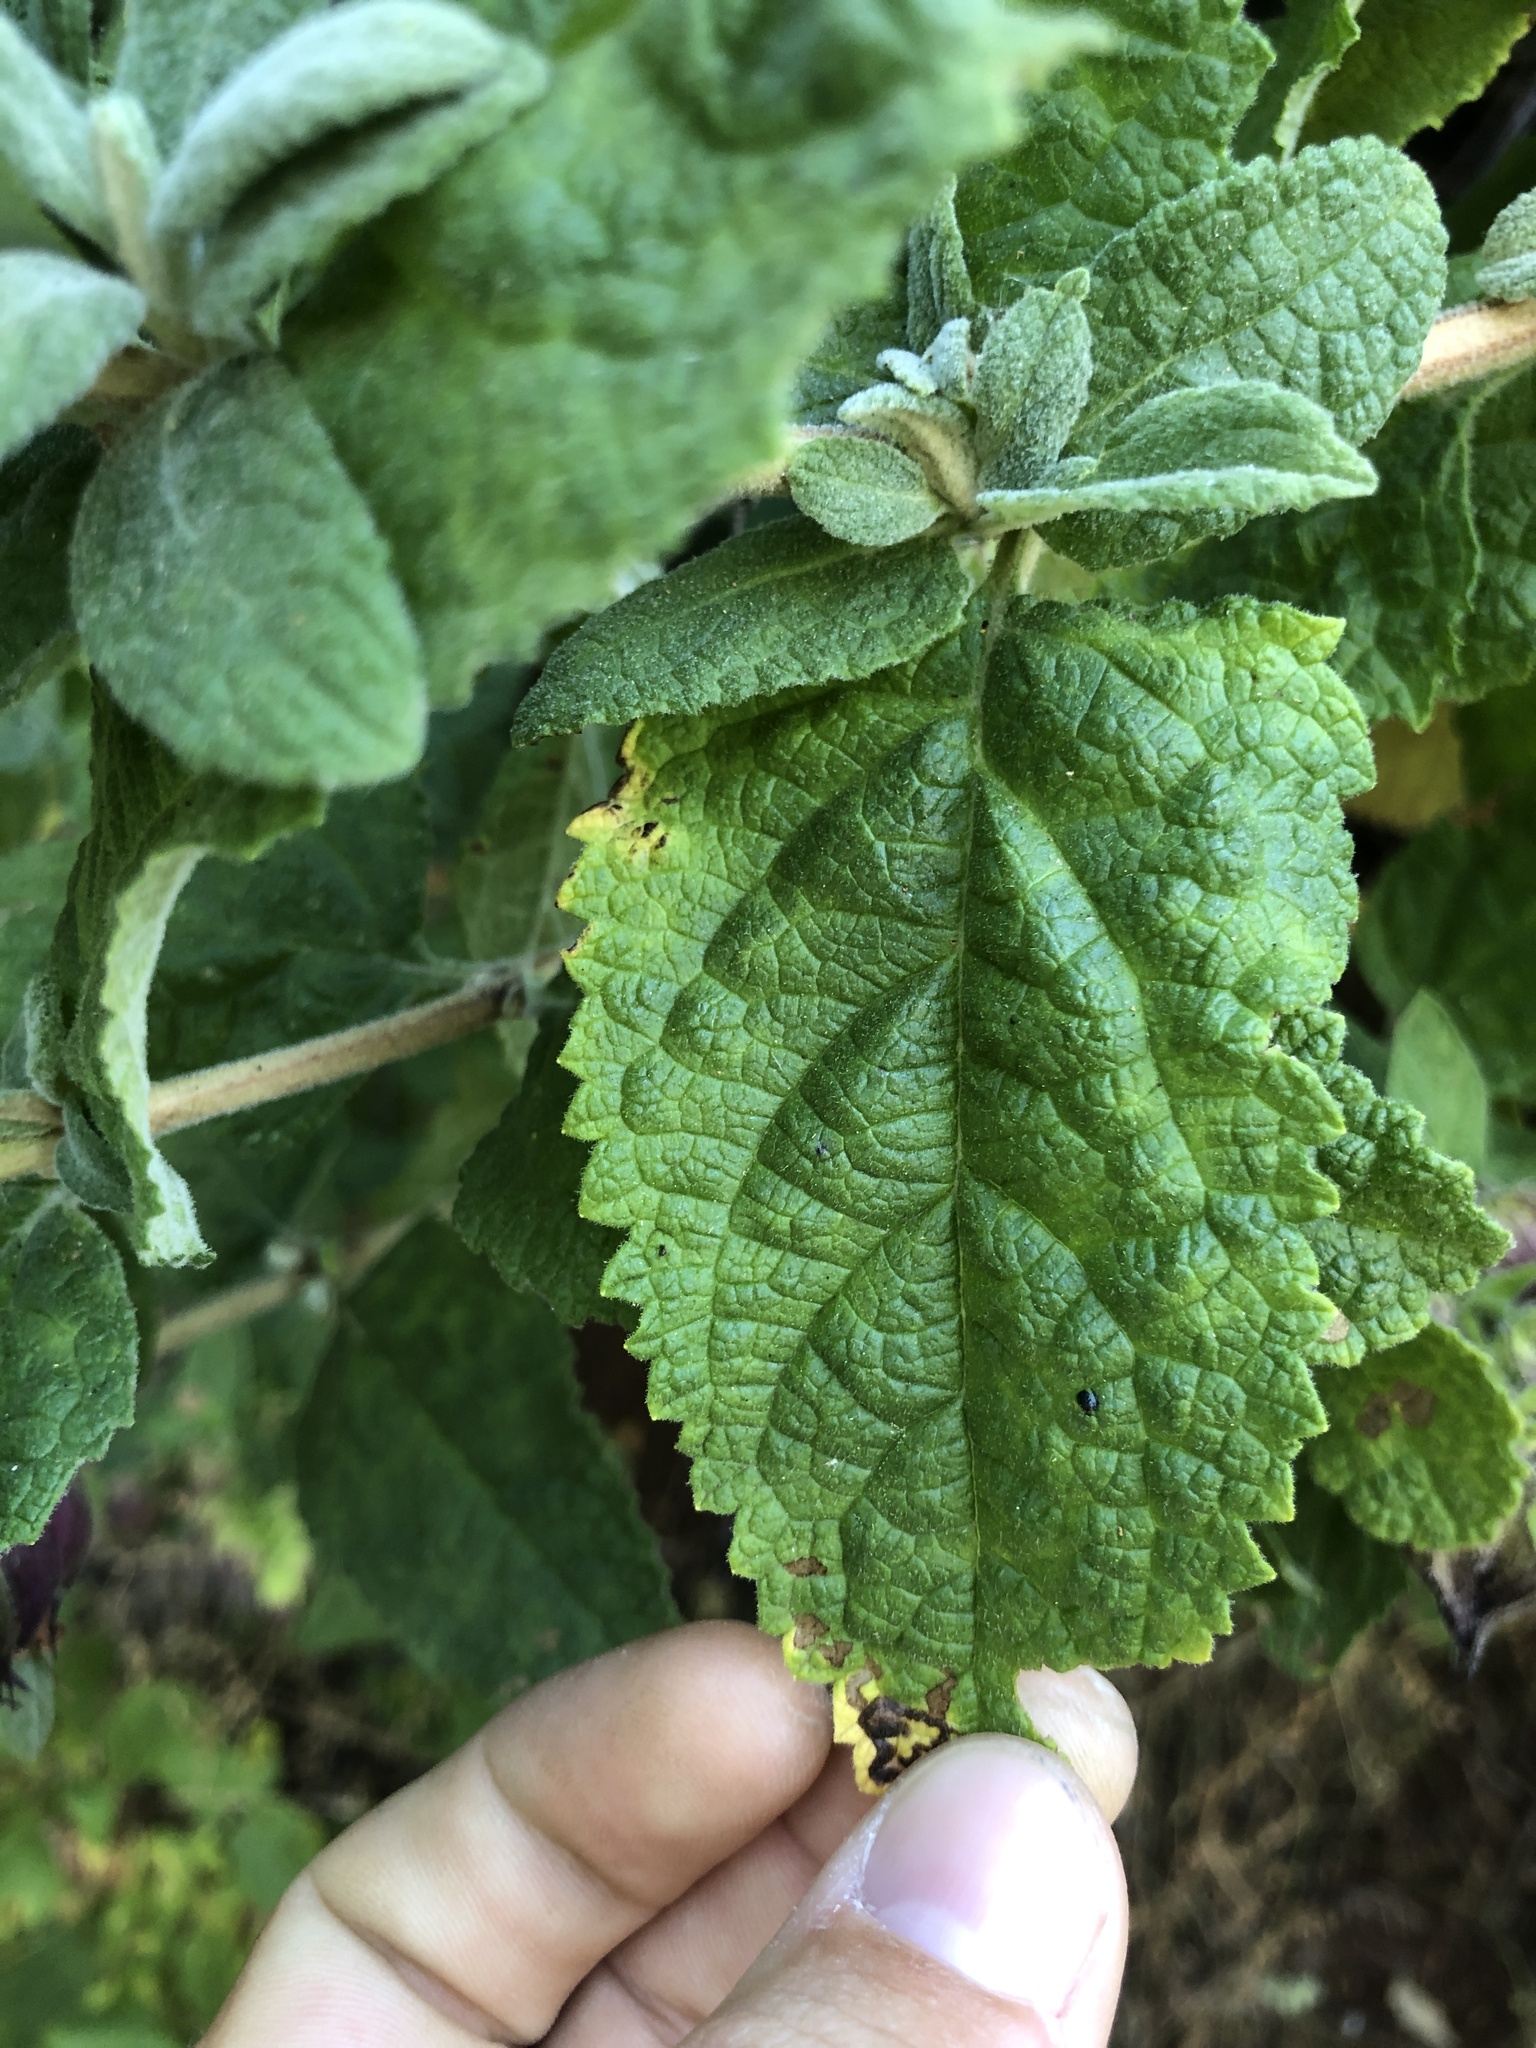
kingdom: Plantae
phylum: Tracheophyta
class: Magnoliopsida
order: Lamiales
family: Lamiaceae
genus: Lepechinia
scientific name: Lepechinia calycina
